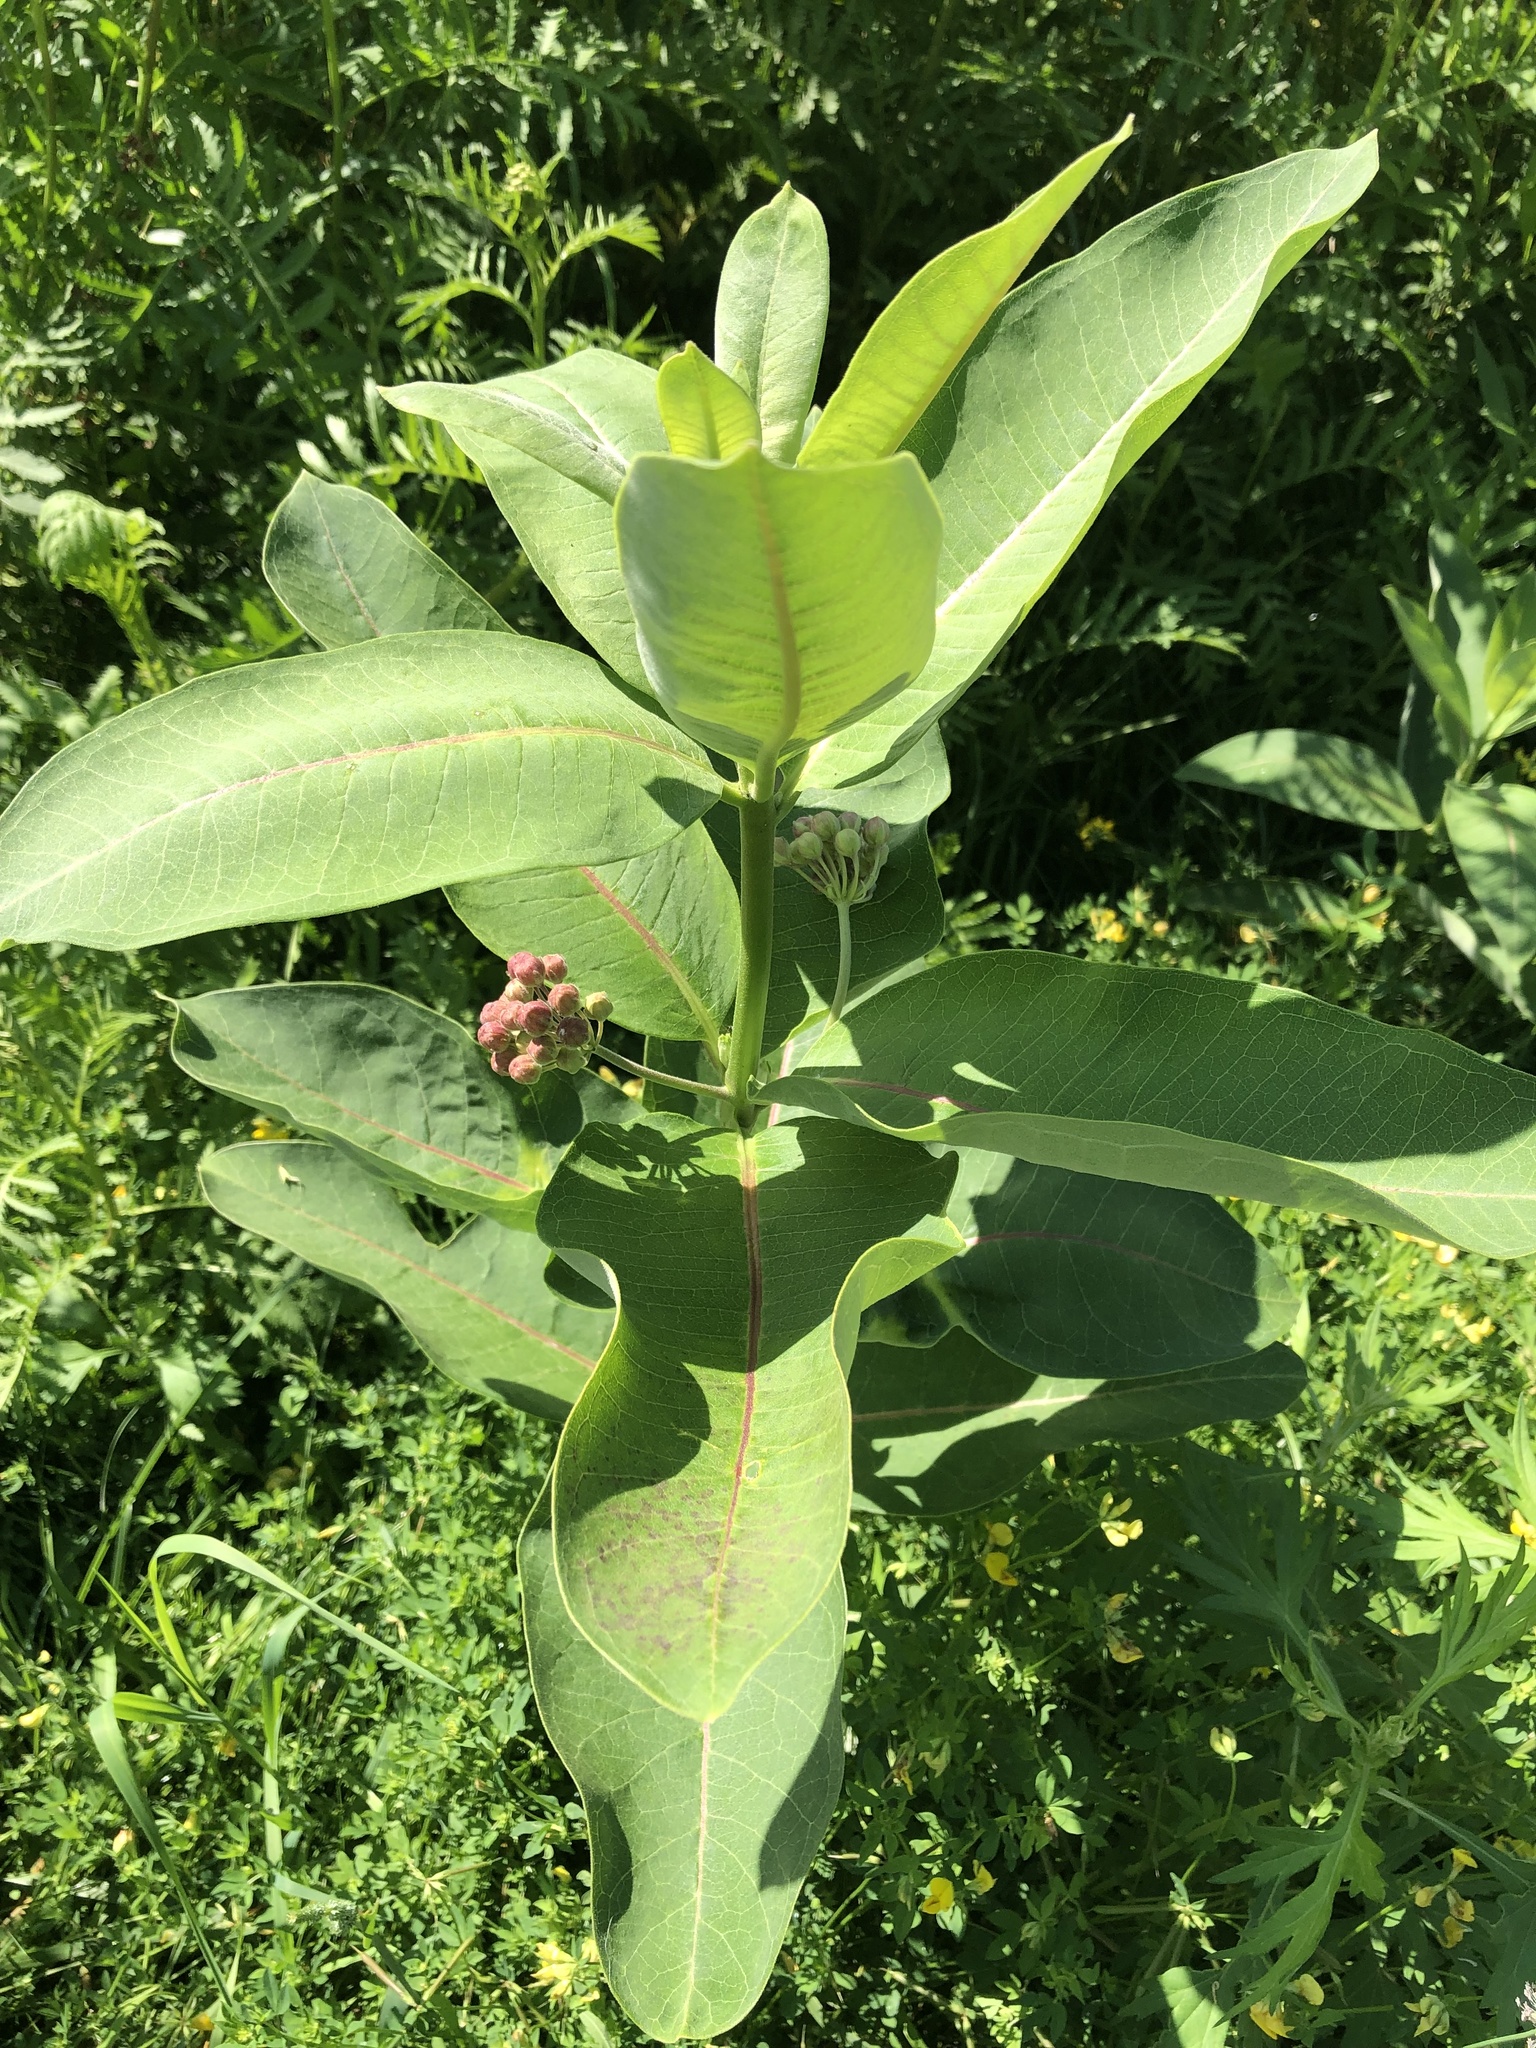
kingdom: Plantae
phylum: Tracheophyta
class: Magnoliopsida
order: Gentianales
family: Apocynaceae
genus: Asclepias
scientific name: Asclepias syriaca
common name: Common milkweed
